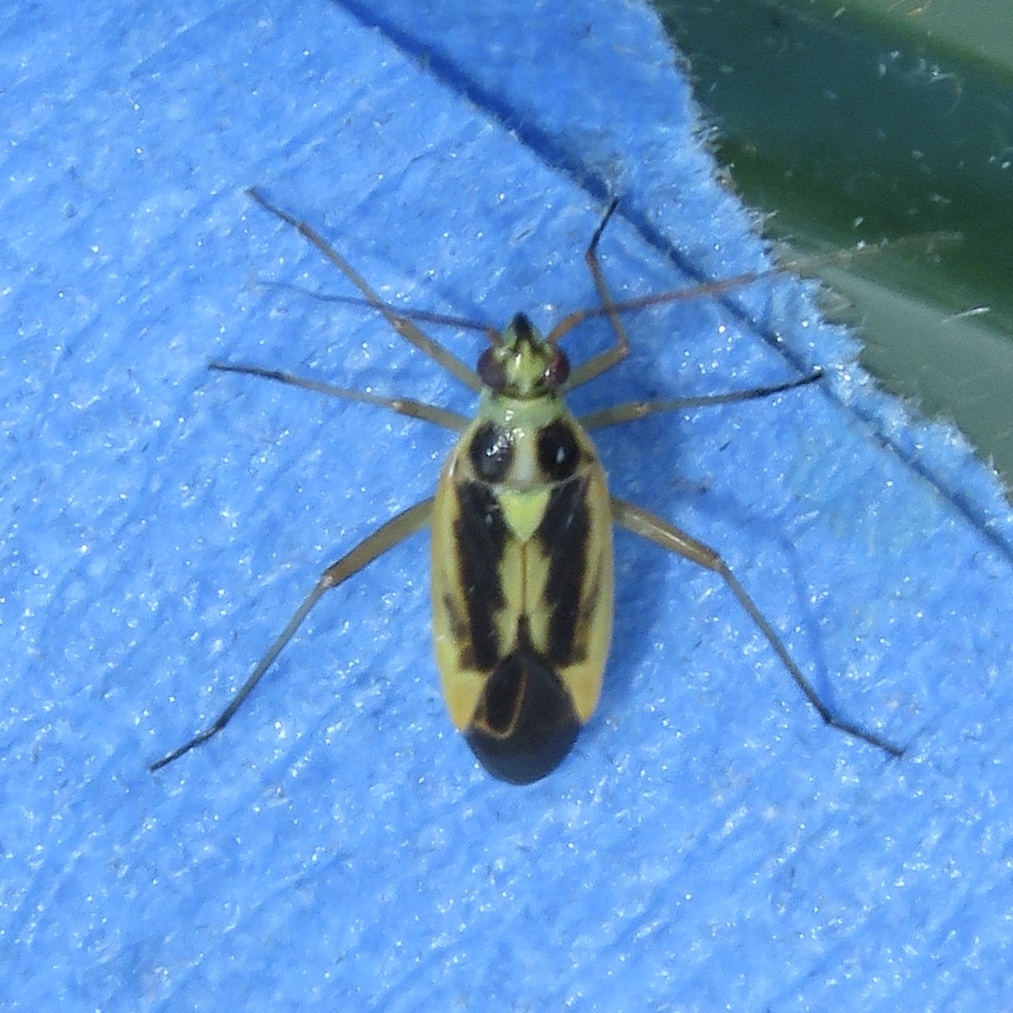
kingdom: Animalia
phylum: Arthropoda
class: Insecta
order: Hemiptera
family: Miridae
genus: Stenotus
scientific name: Stenotus binotatus
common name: Plant bug
